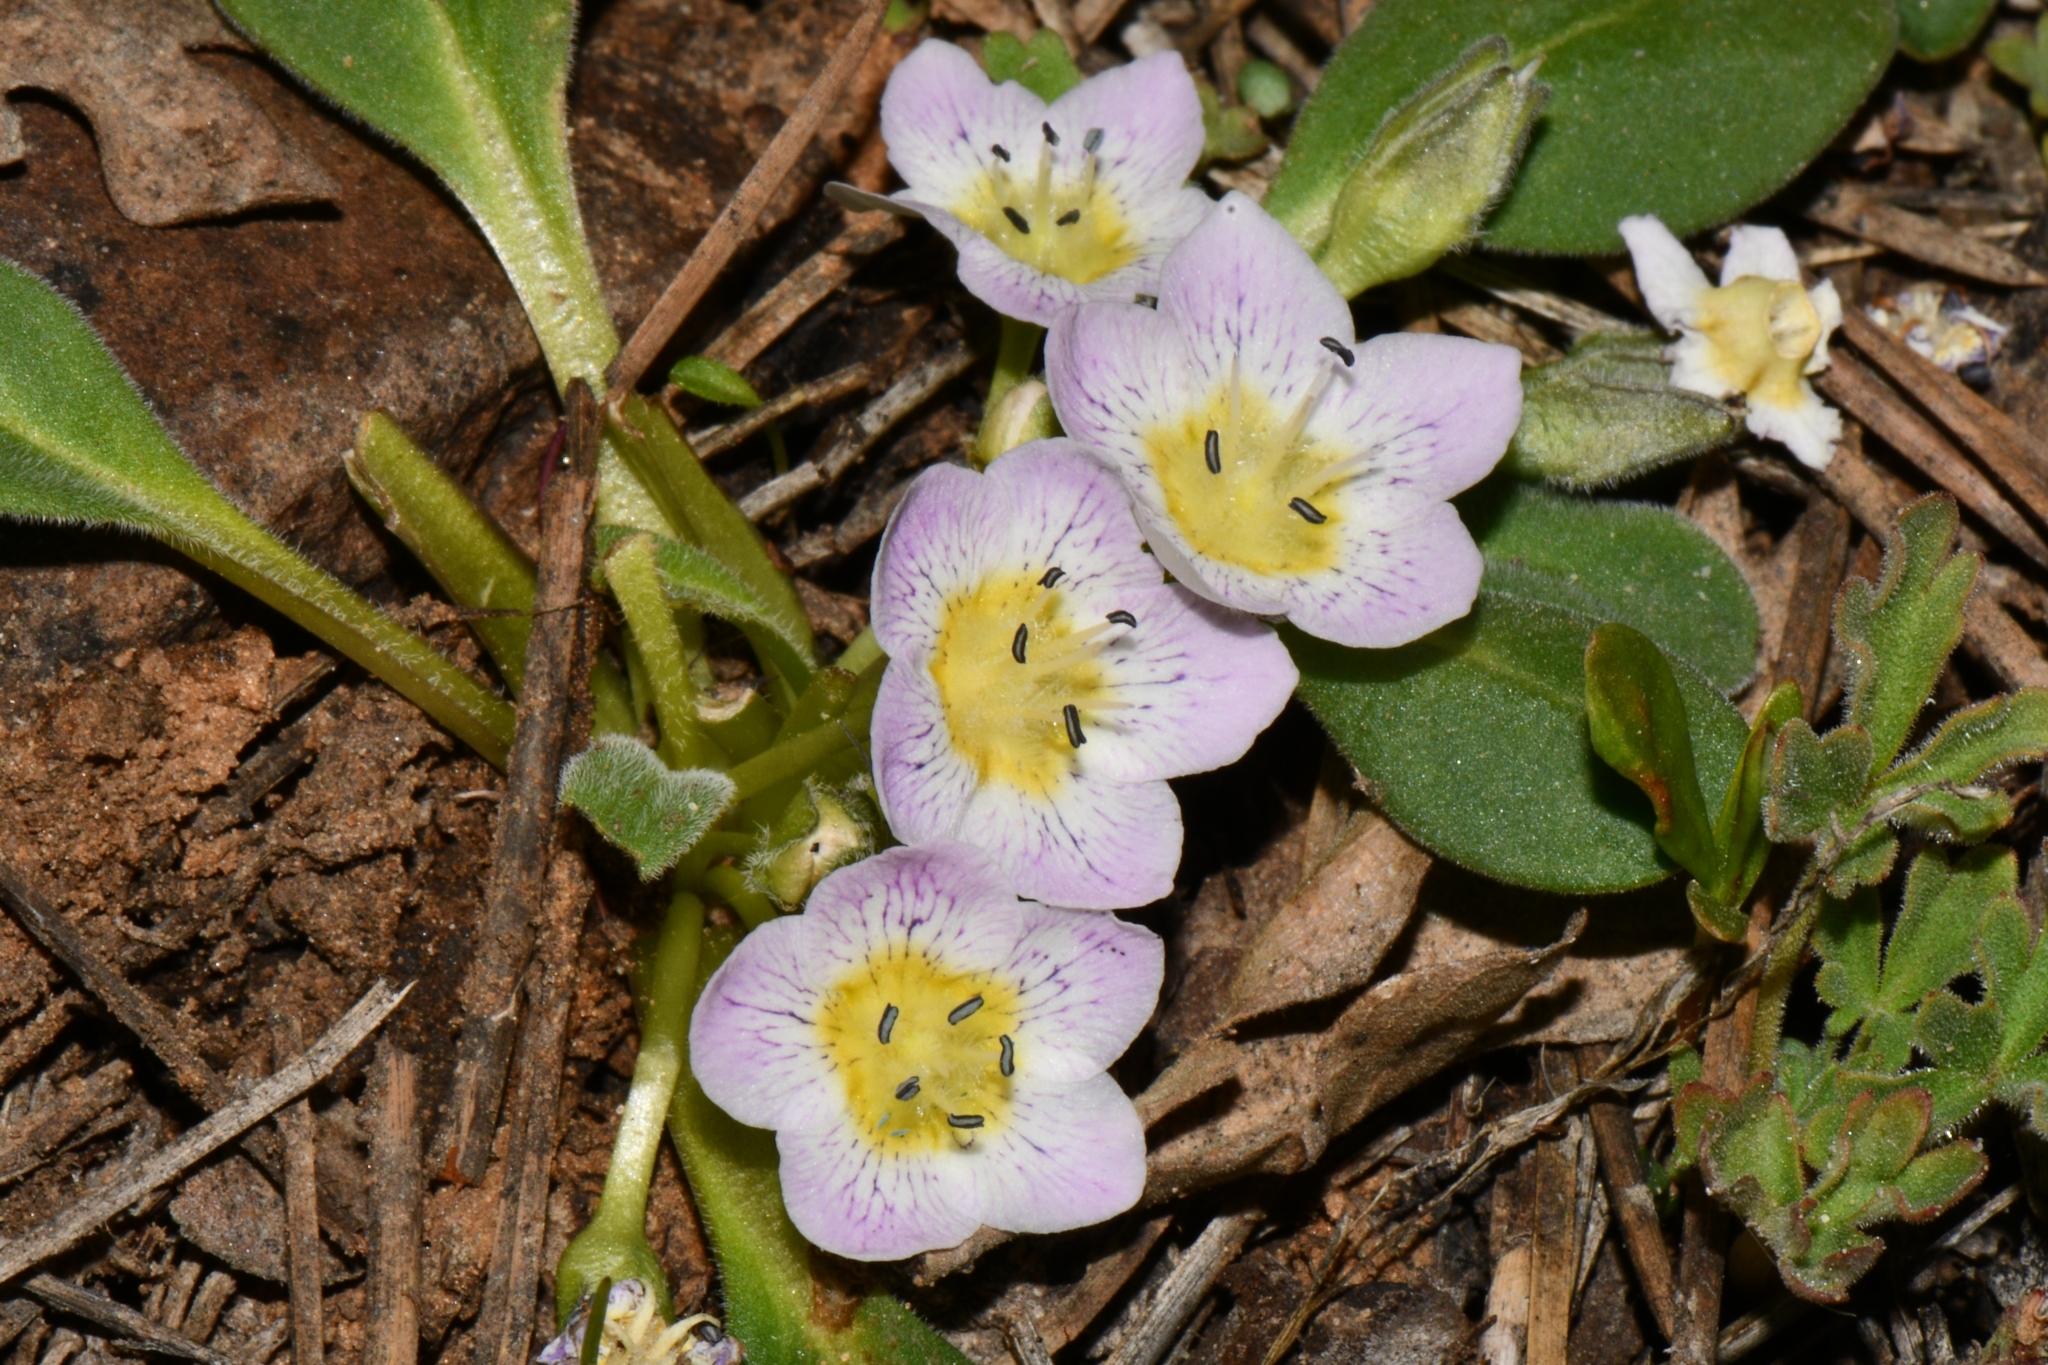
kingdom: Plantae
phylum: Tracheophyta
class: Magnoliopsida
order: Boraginales
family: Hydrophyllaceae
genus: Hesperochiron
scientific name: Hesperochiron pumilus
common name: Dwarf hesperochiron
